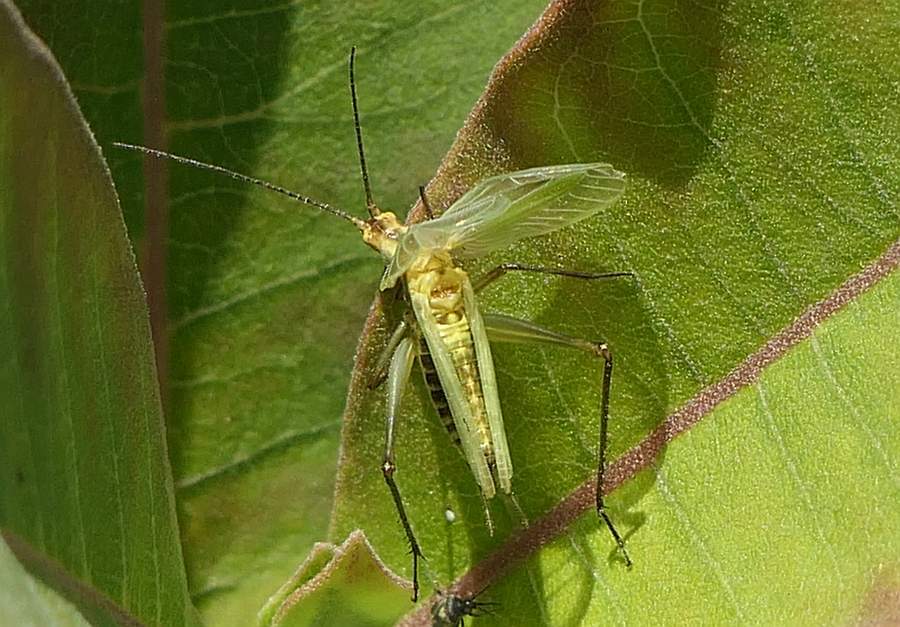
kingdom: Animalia
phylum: Arthropoda
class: Insecta
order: Orthoptera
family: Gryllidae
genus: Oecanthus
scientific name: Oecanthus nigricornis
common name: Black-horned tree cricket
